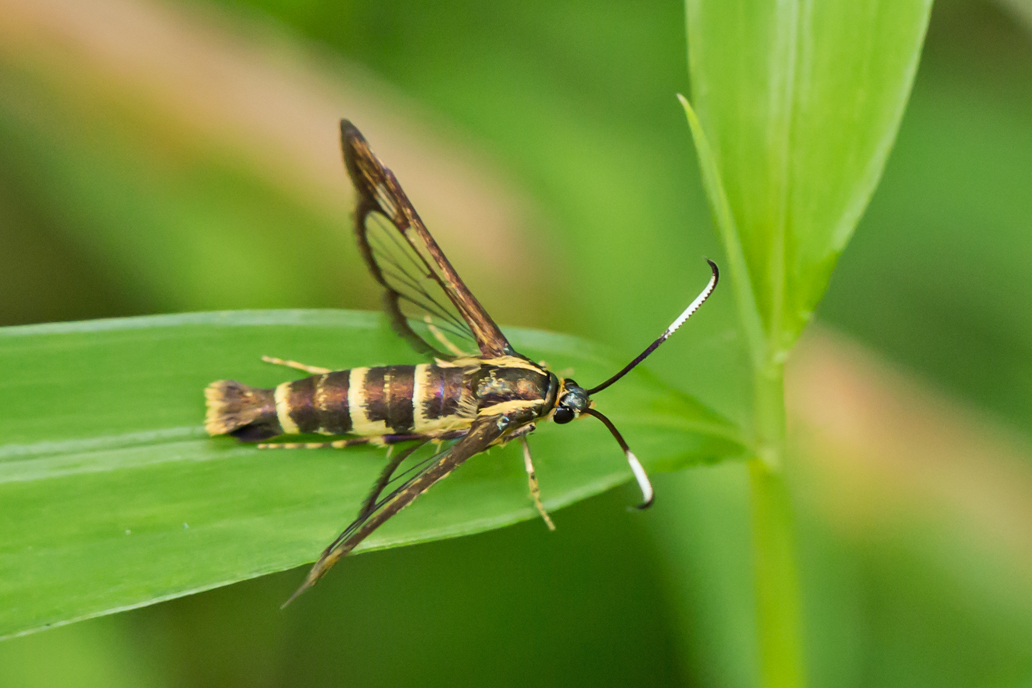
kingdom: Animalia
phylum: Arthropoda
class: Insecta
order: Lepidoptera
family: Sesiidae
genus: Carmenta
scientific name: Carmenta bassiformis
